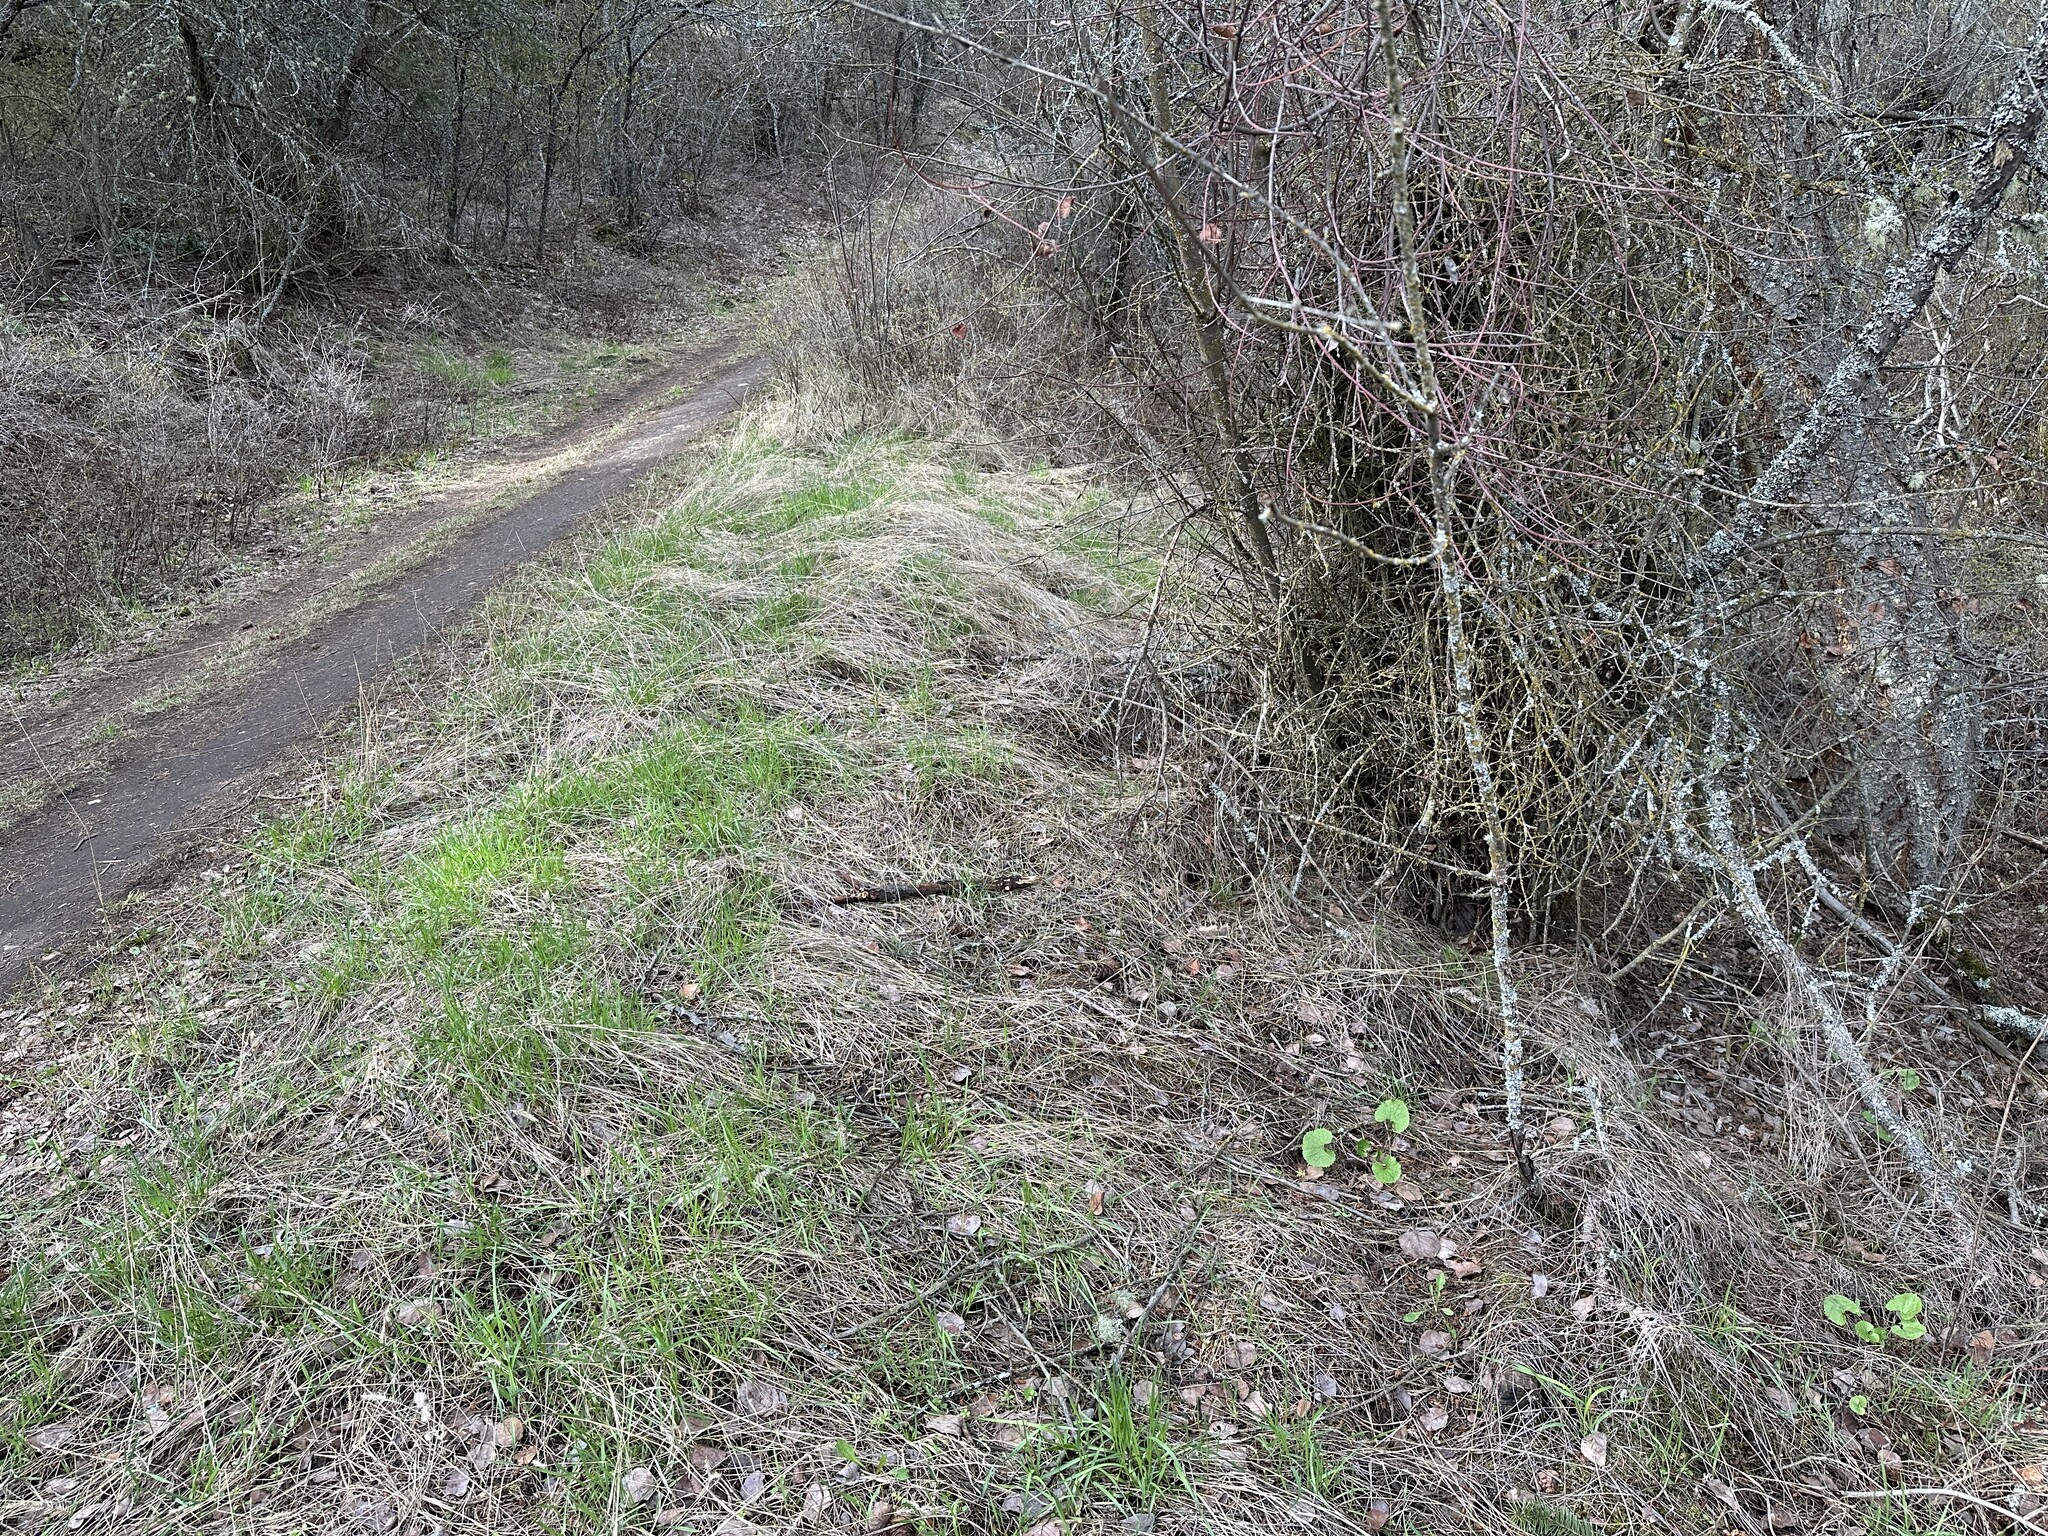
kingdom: Plantae
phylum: Tracheophyta
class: Magnoliopsida
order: Brassicales
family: Brassicaceae
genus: Alliaria
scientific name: Alliaria petiolata
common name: Garlic mustard
